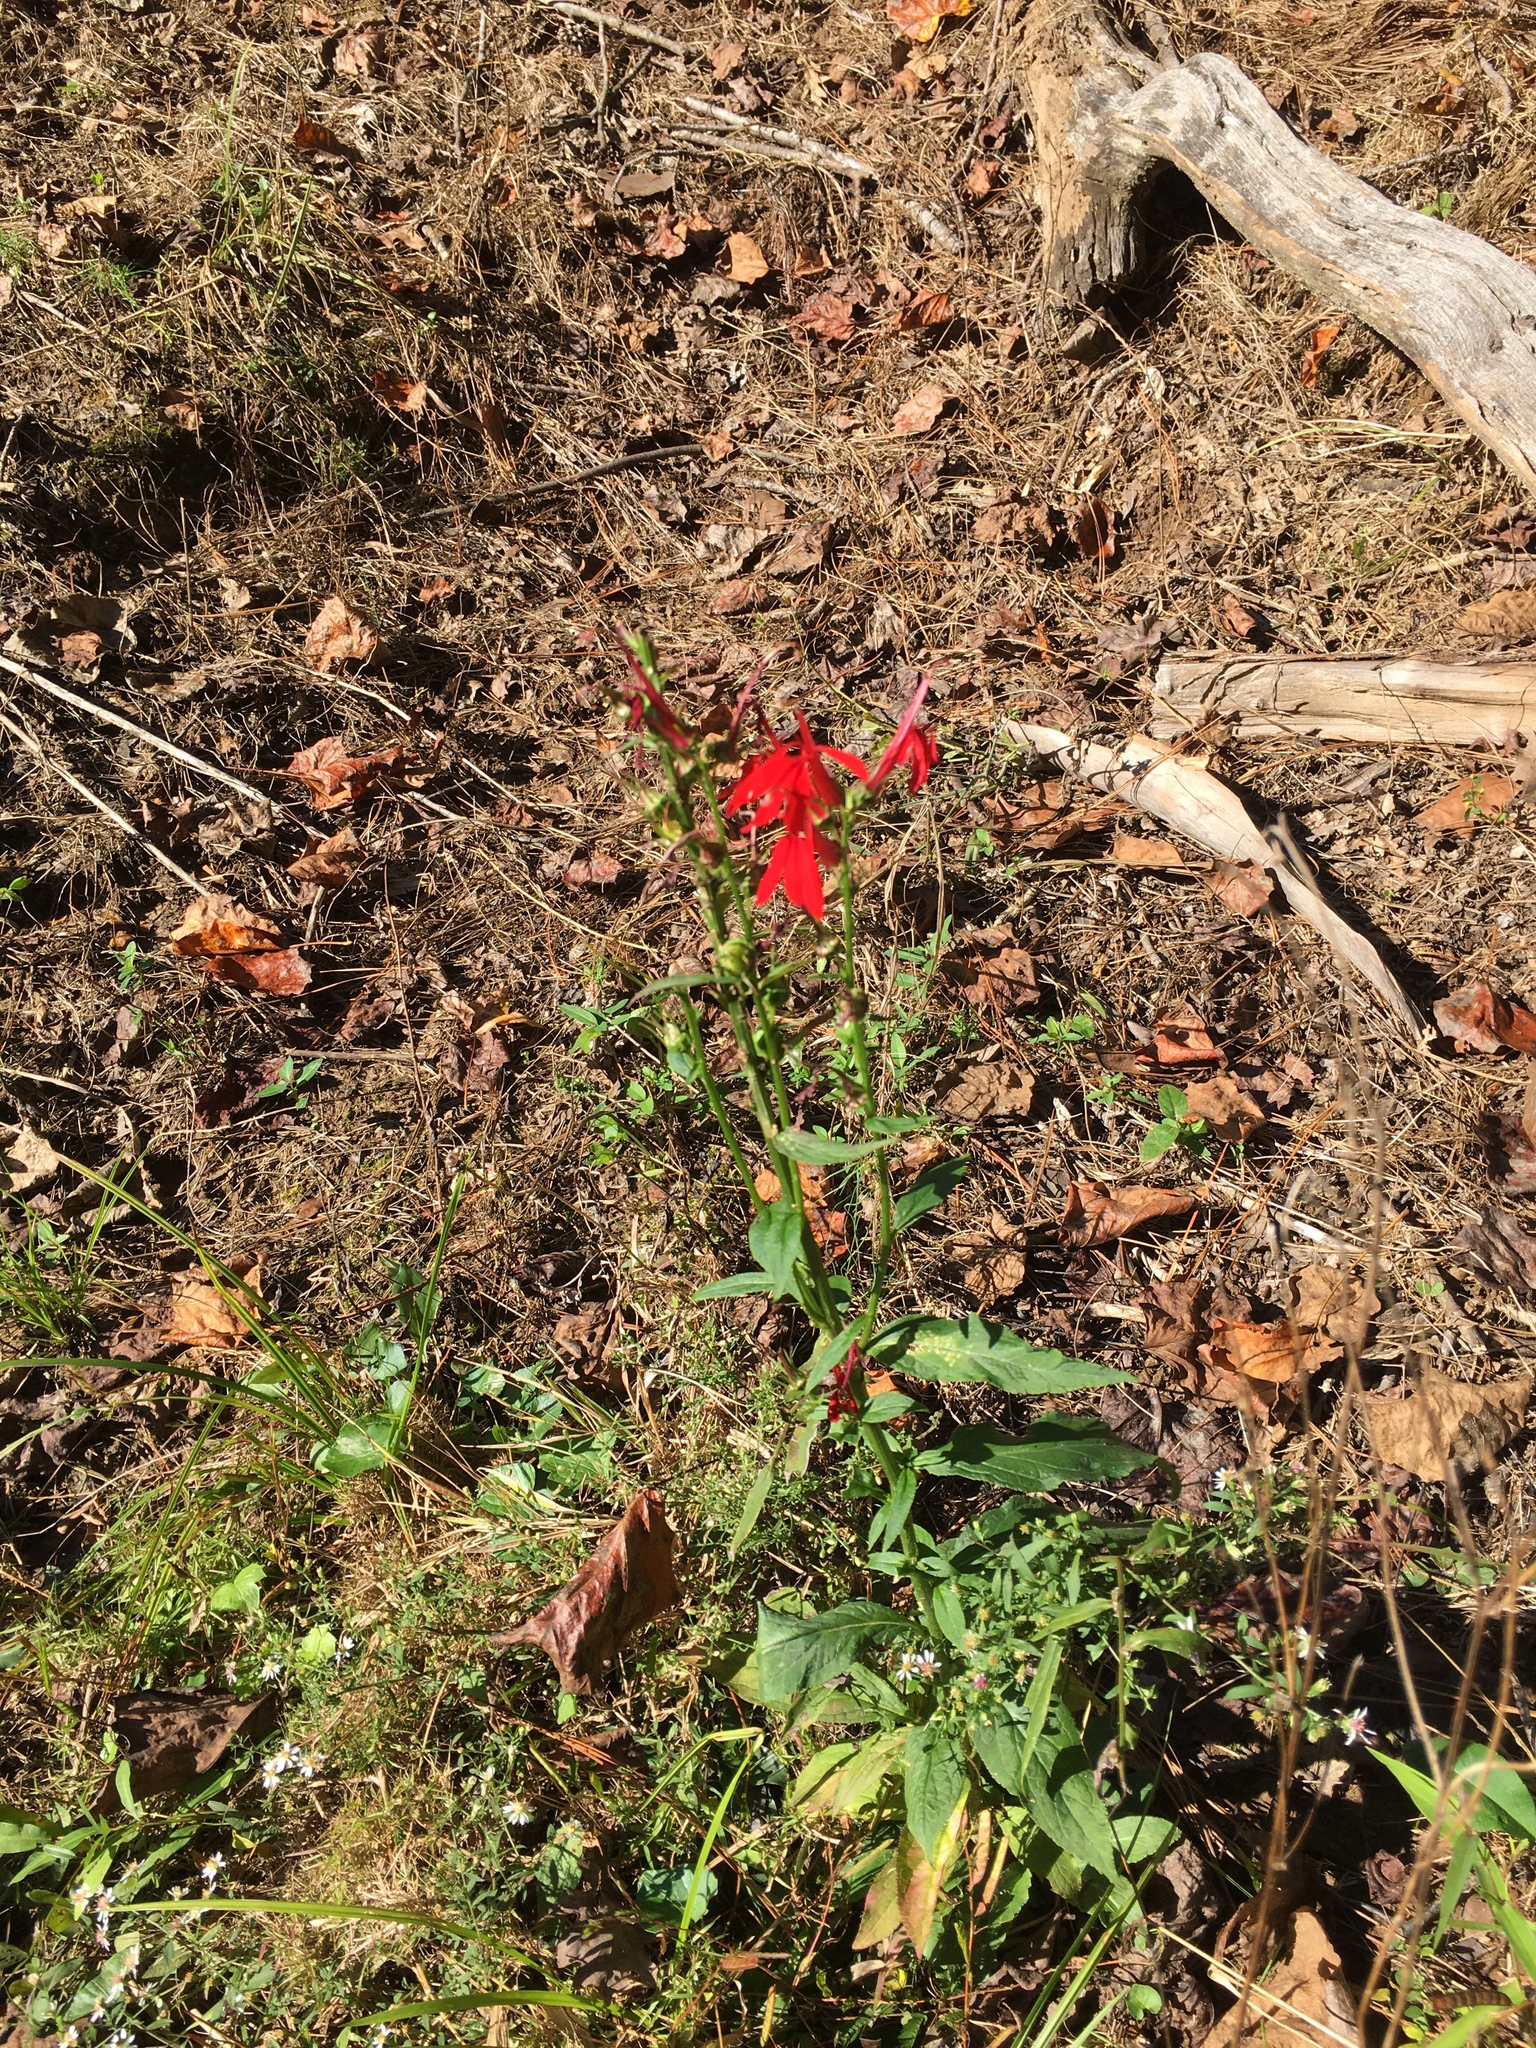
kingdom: Plantae
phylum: Tracheophyta
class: Magnoliopsida
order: Asterales
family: Campanulaceae
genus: Lobelia
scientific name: Lobelia cardinalis
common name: Cardinal flower
